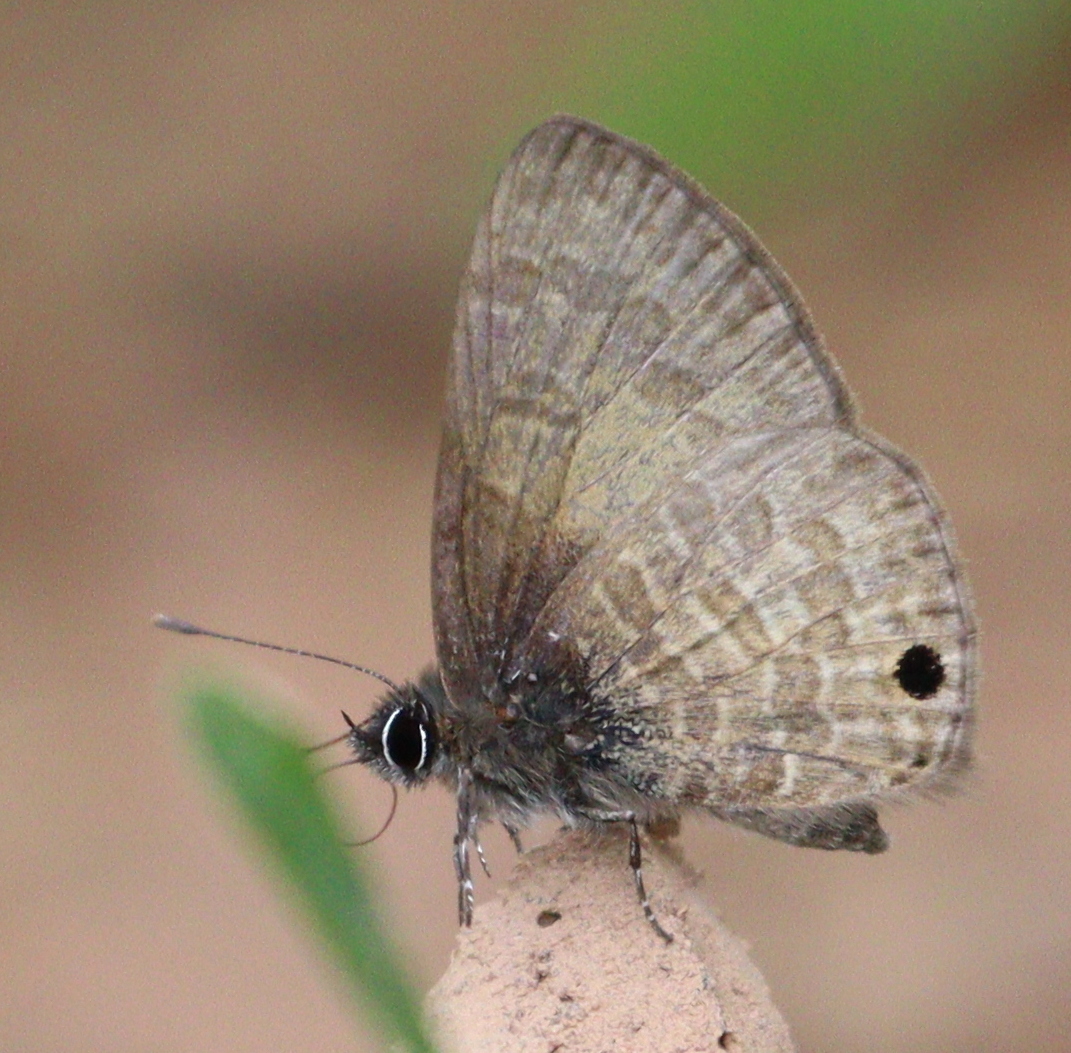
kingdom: Animalia
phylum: Arthropoda
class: Insecta
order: Lepidoptera
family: Lycaenidae
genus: Prosotas
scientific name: Prosotas gracilis
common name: Dark-based lineblue
